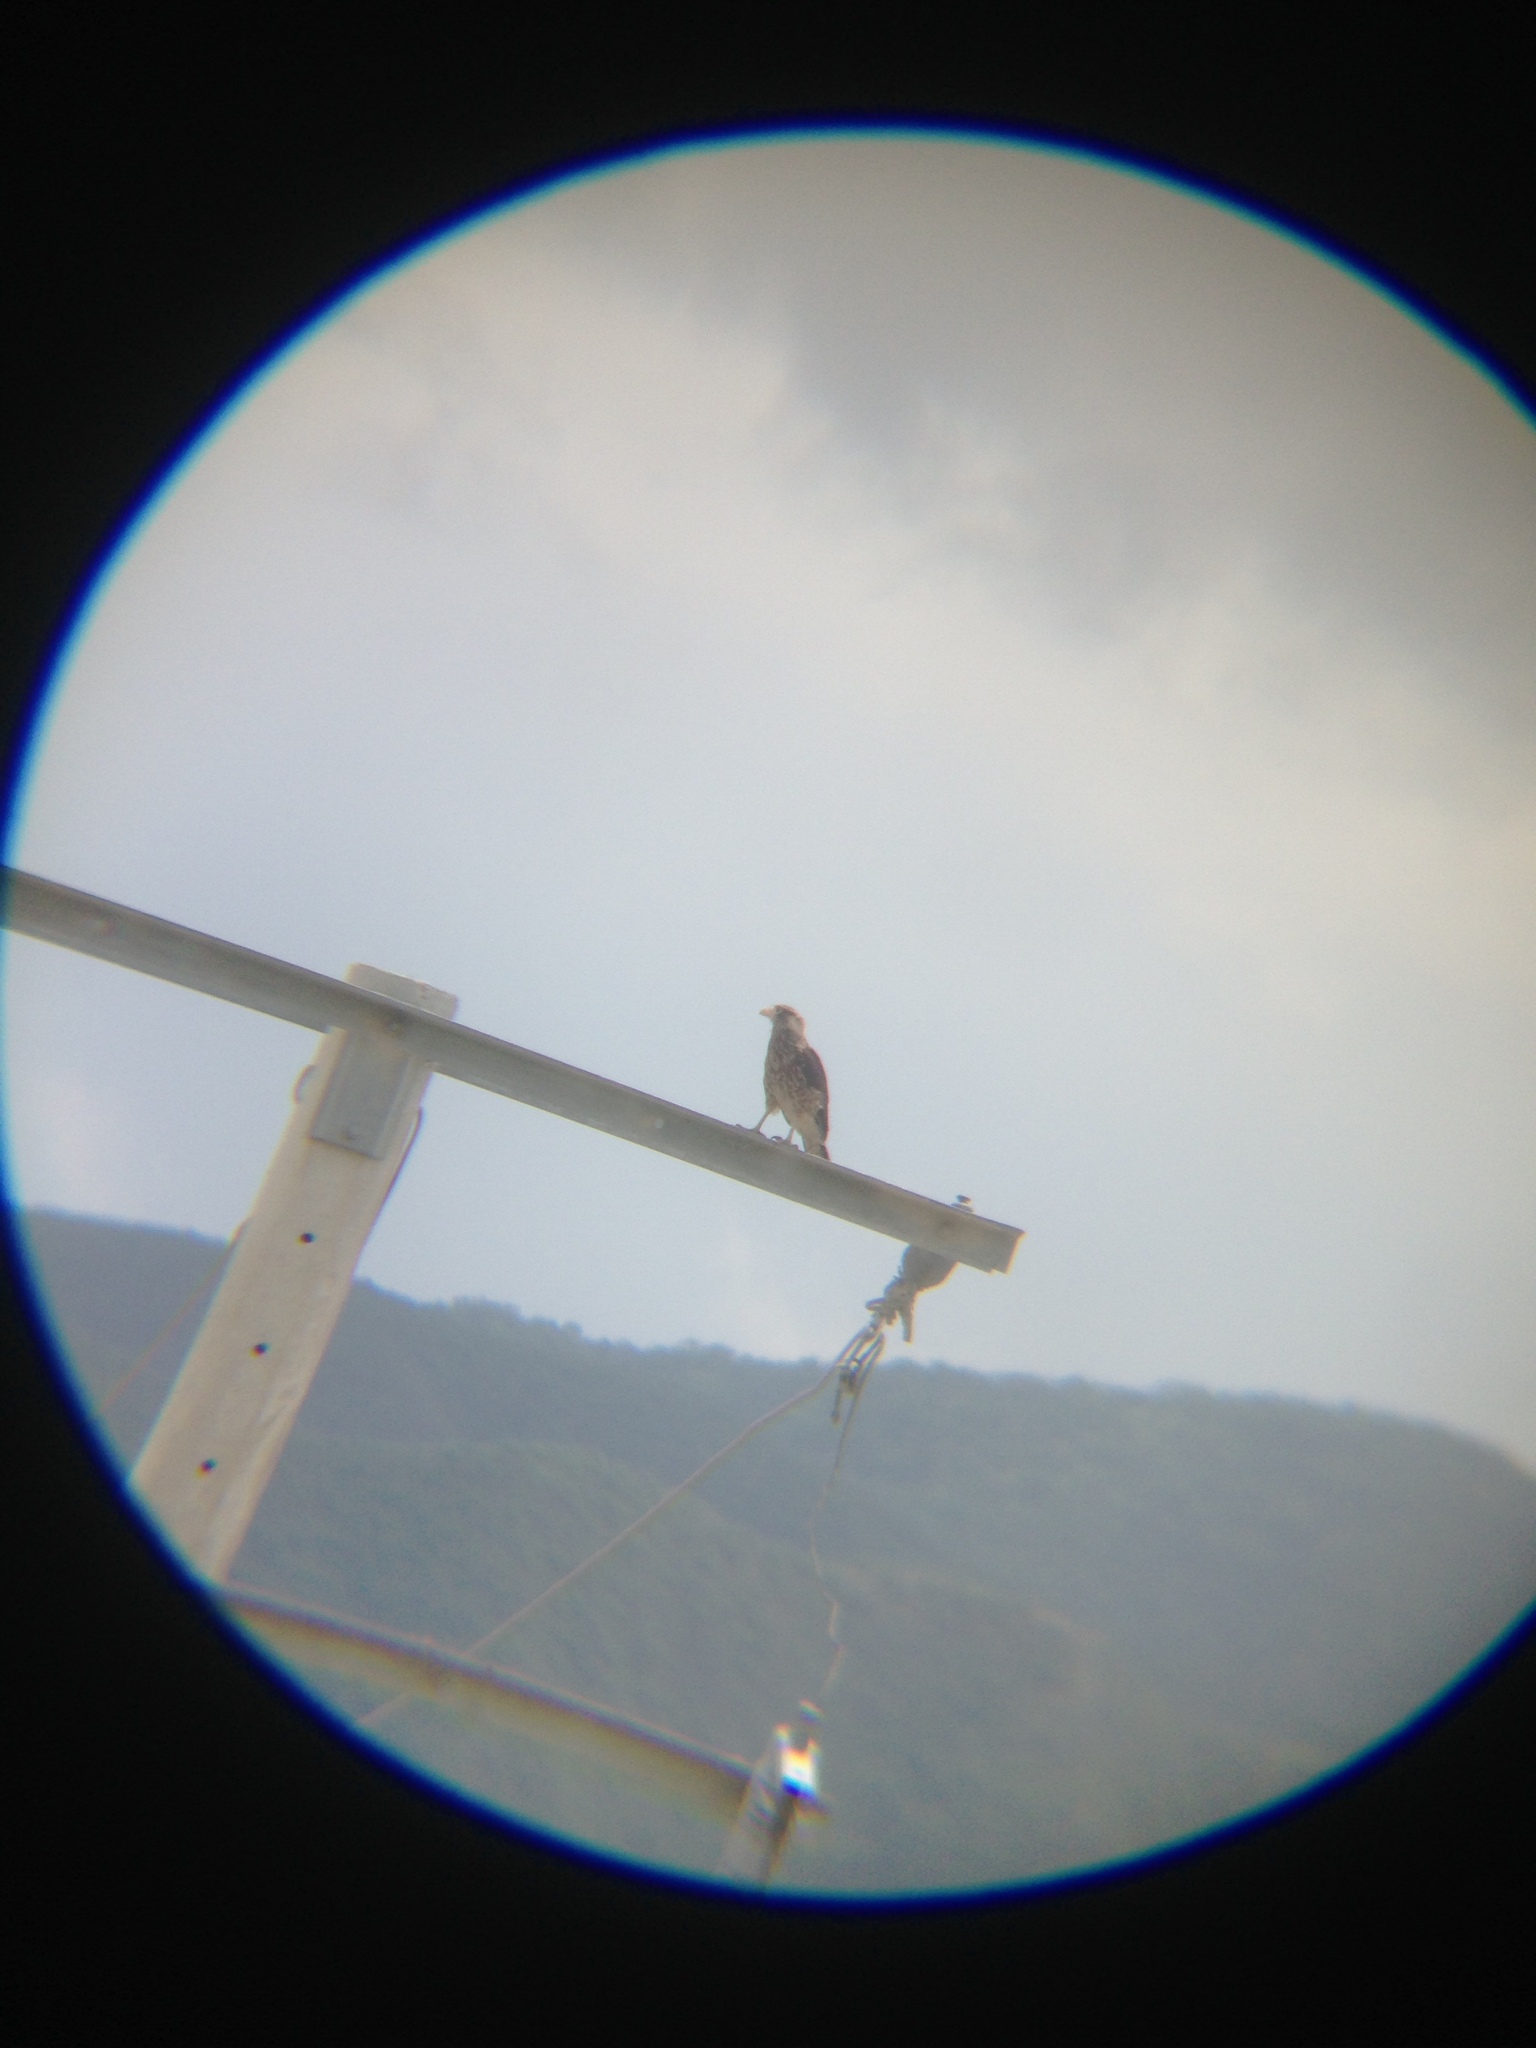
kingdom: Animalia
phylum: Chordata
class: Aves
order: Falconiformes
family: Falconidae
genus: Daptrius
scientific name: Daptrius
